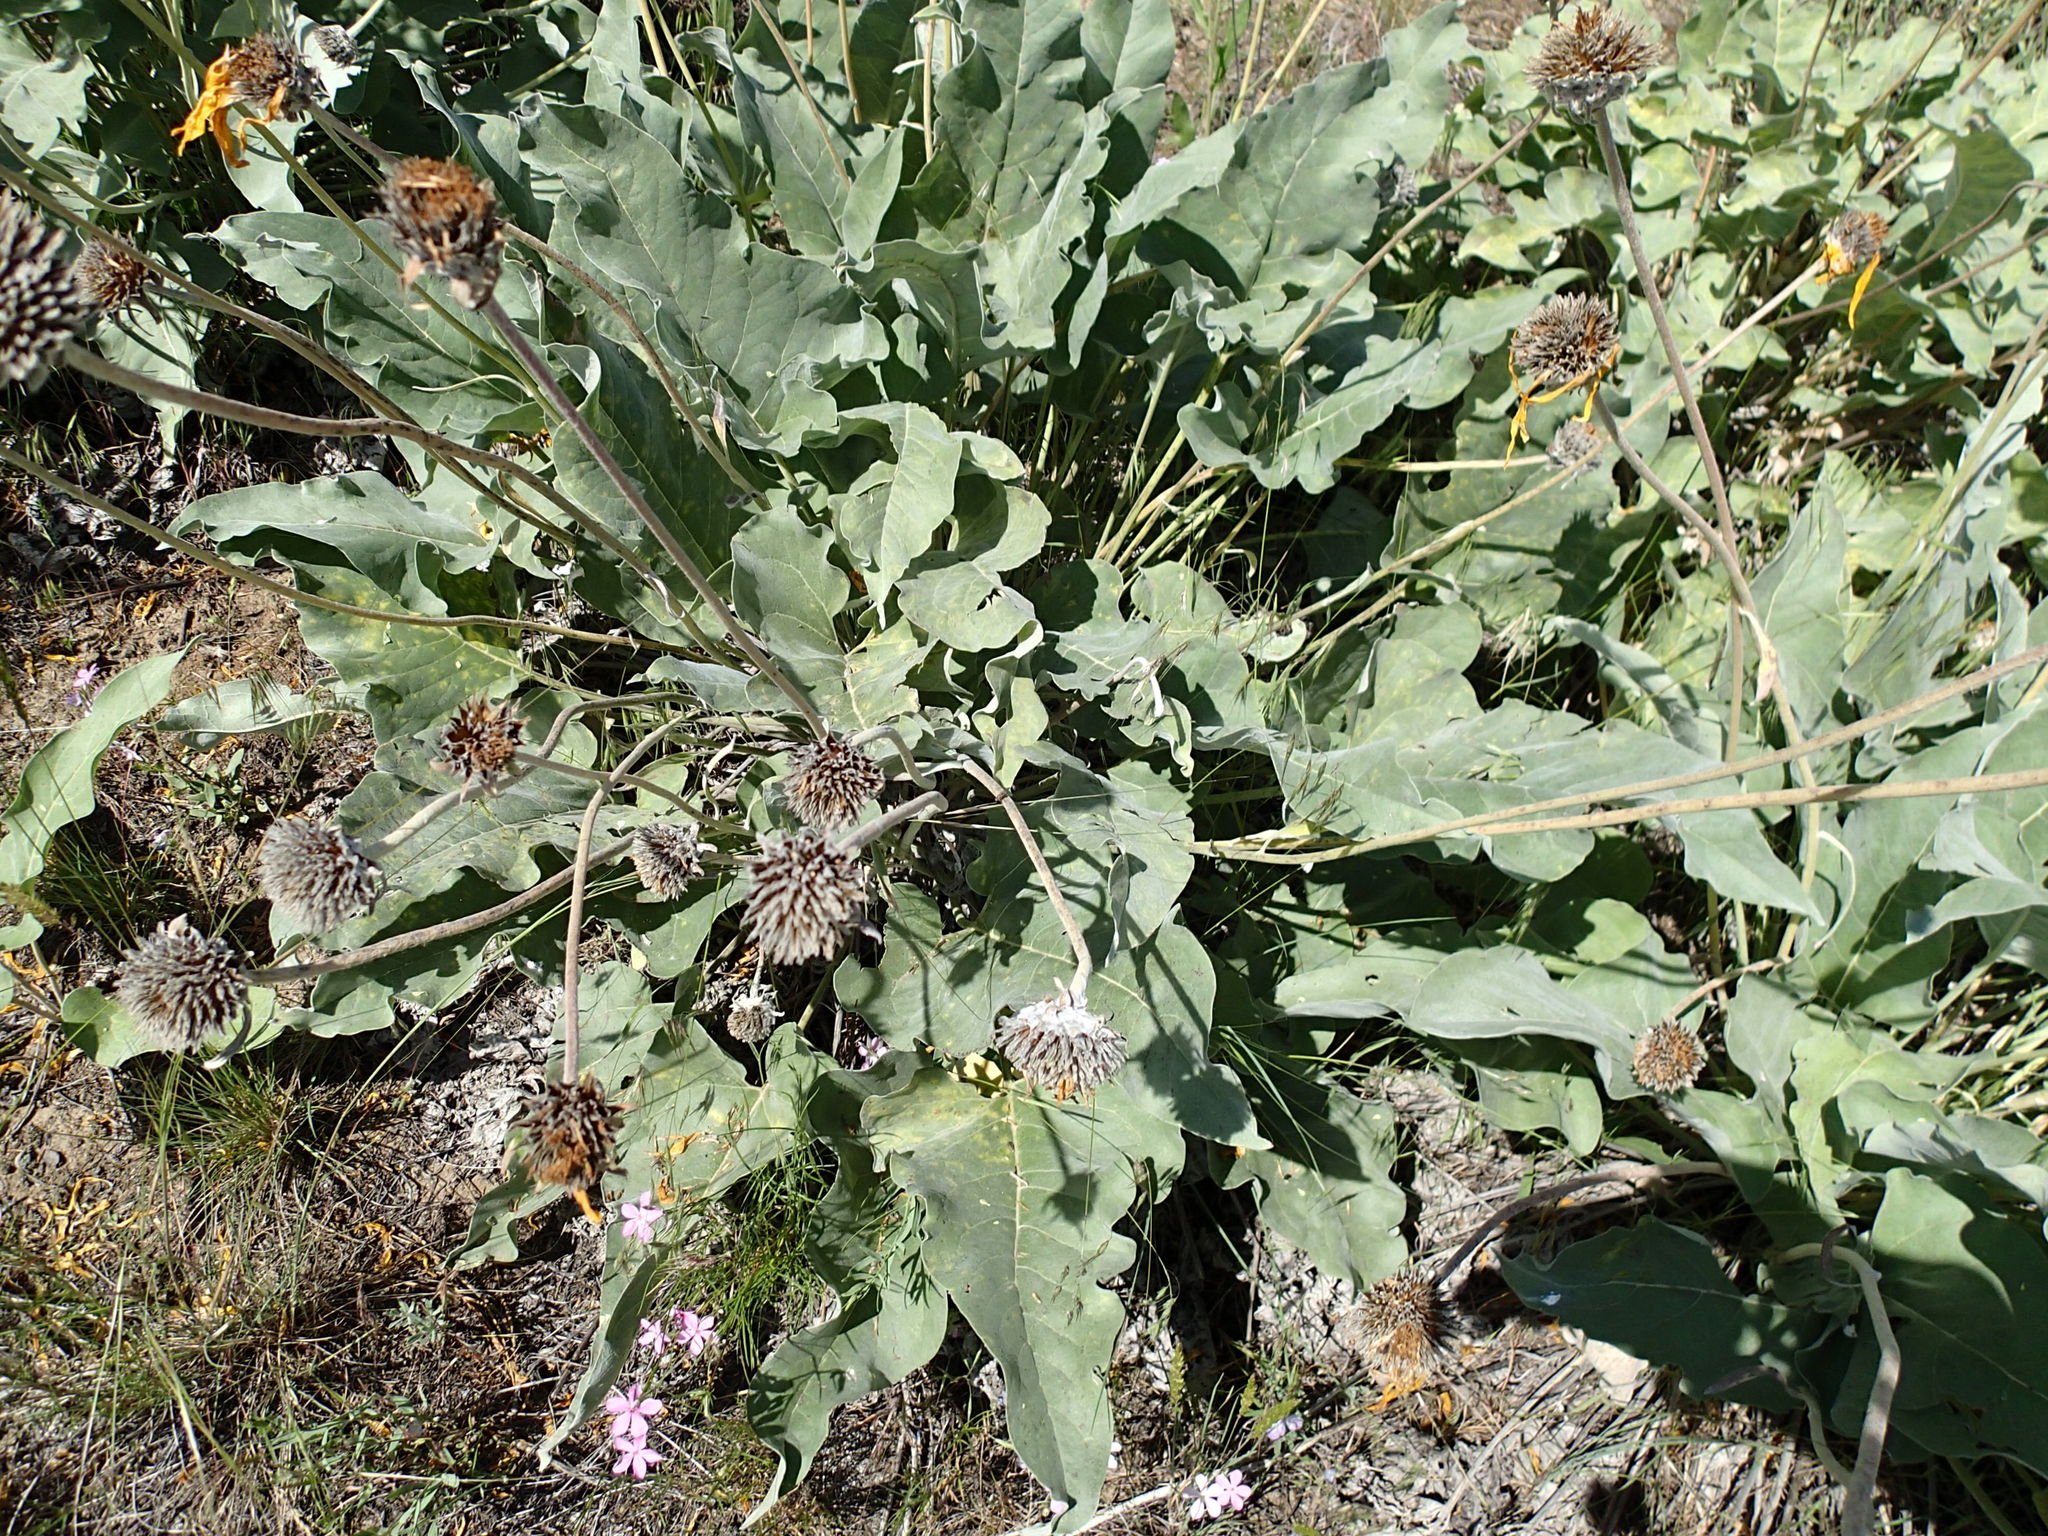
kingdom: Plantae
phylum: Tracheophyta
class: Magnoliopsida
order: Asterales
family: Asteraceae
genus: Wyethia
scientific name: Wyethia sagittata
